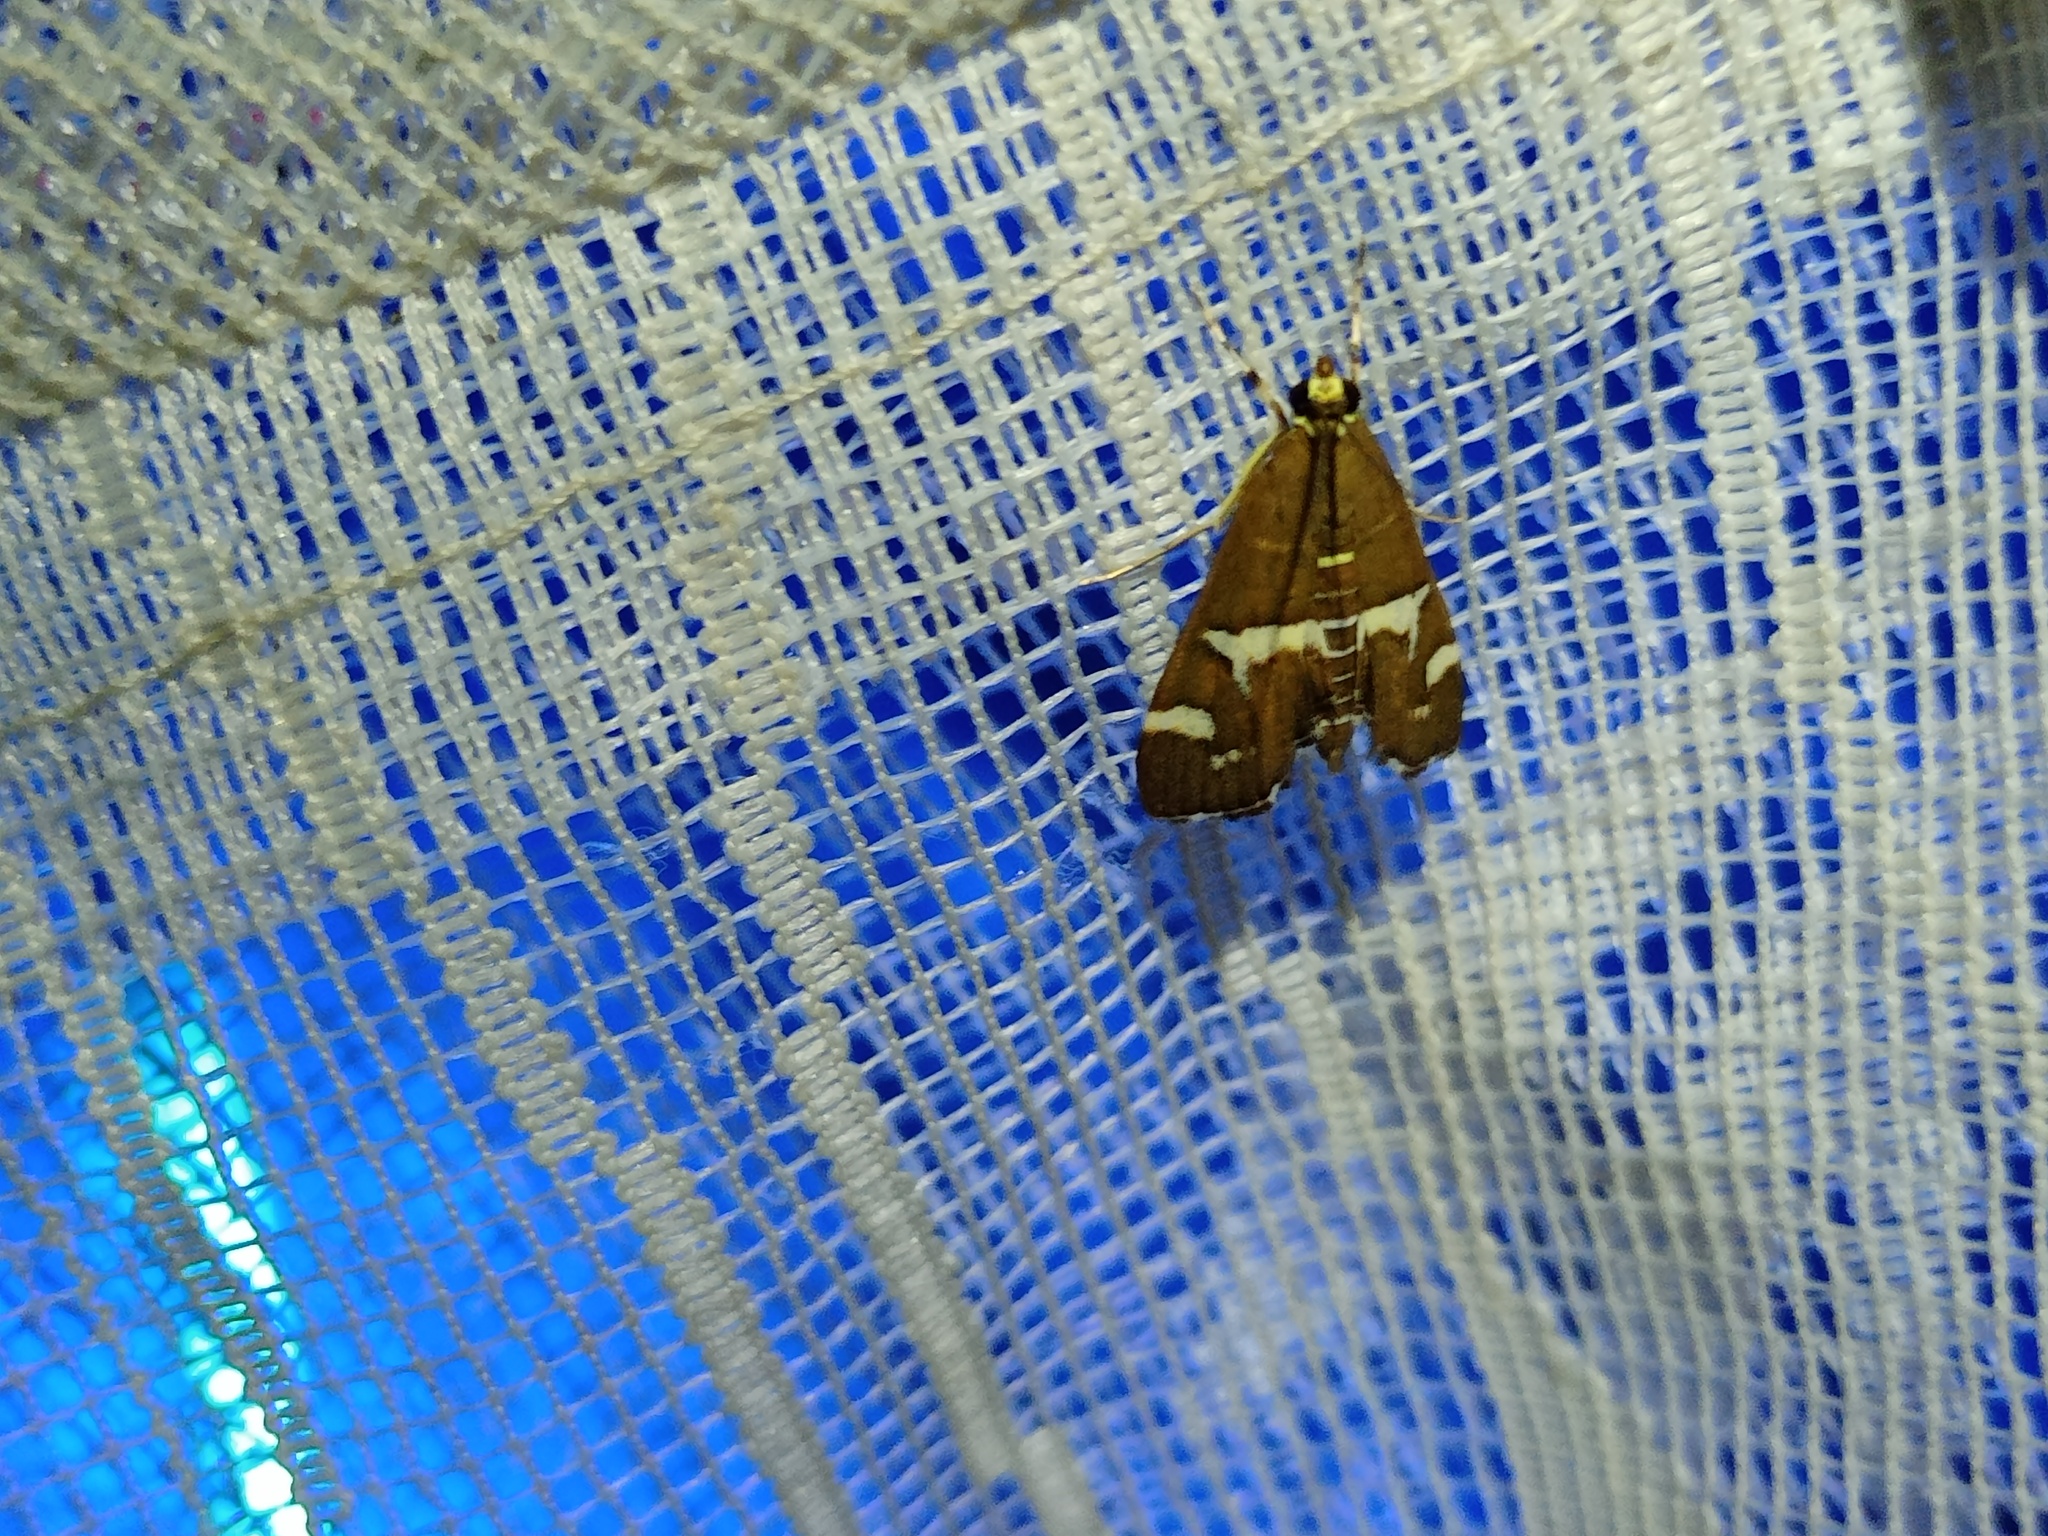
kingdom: Animalia
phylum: Arthropoda
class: Insecta
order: Lepidoptera
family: Crambidae
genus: Spoladea
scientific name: Spoladea recurvalis
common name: Beet webworm moth
